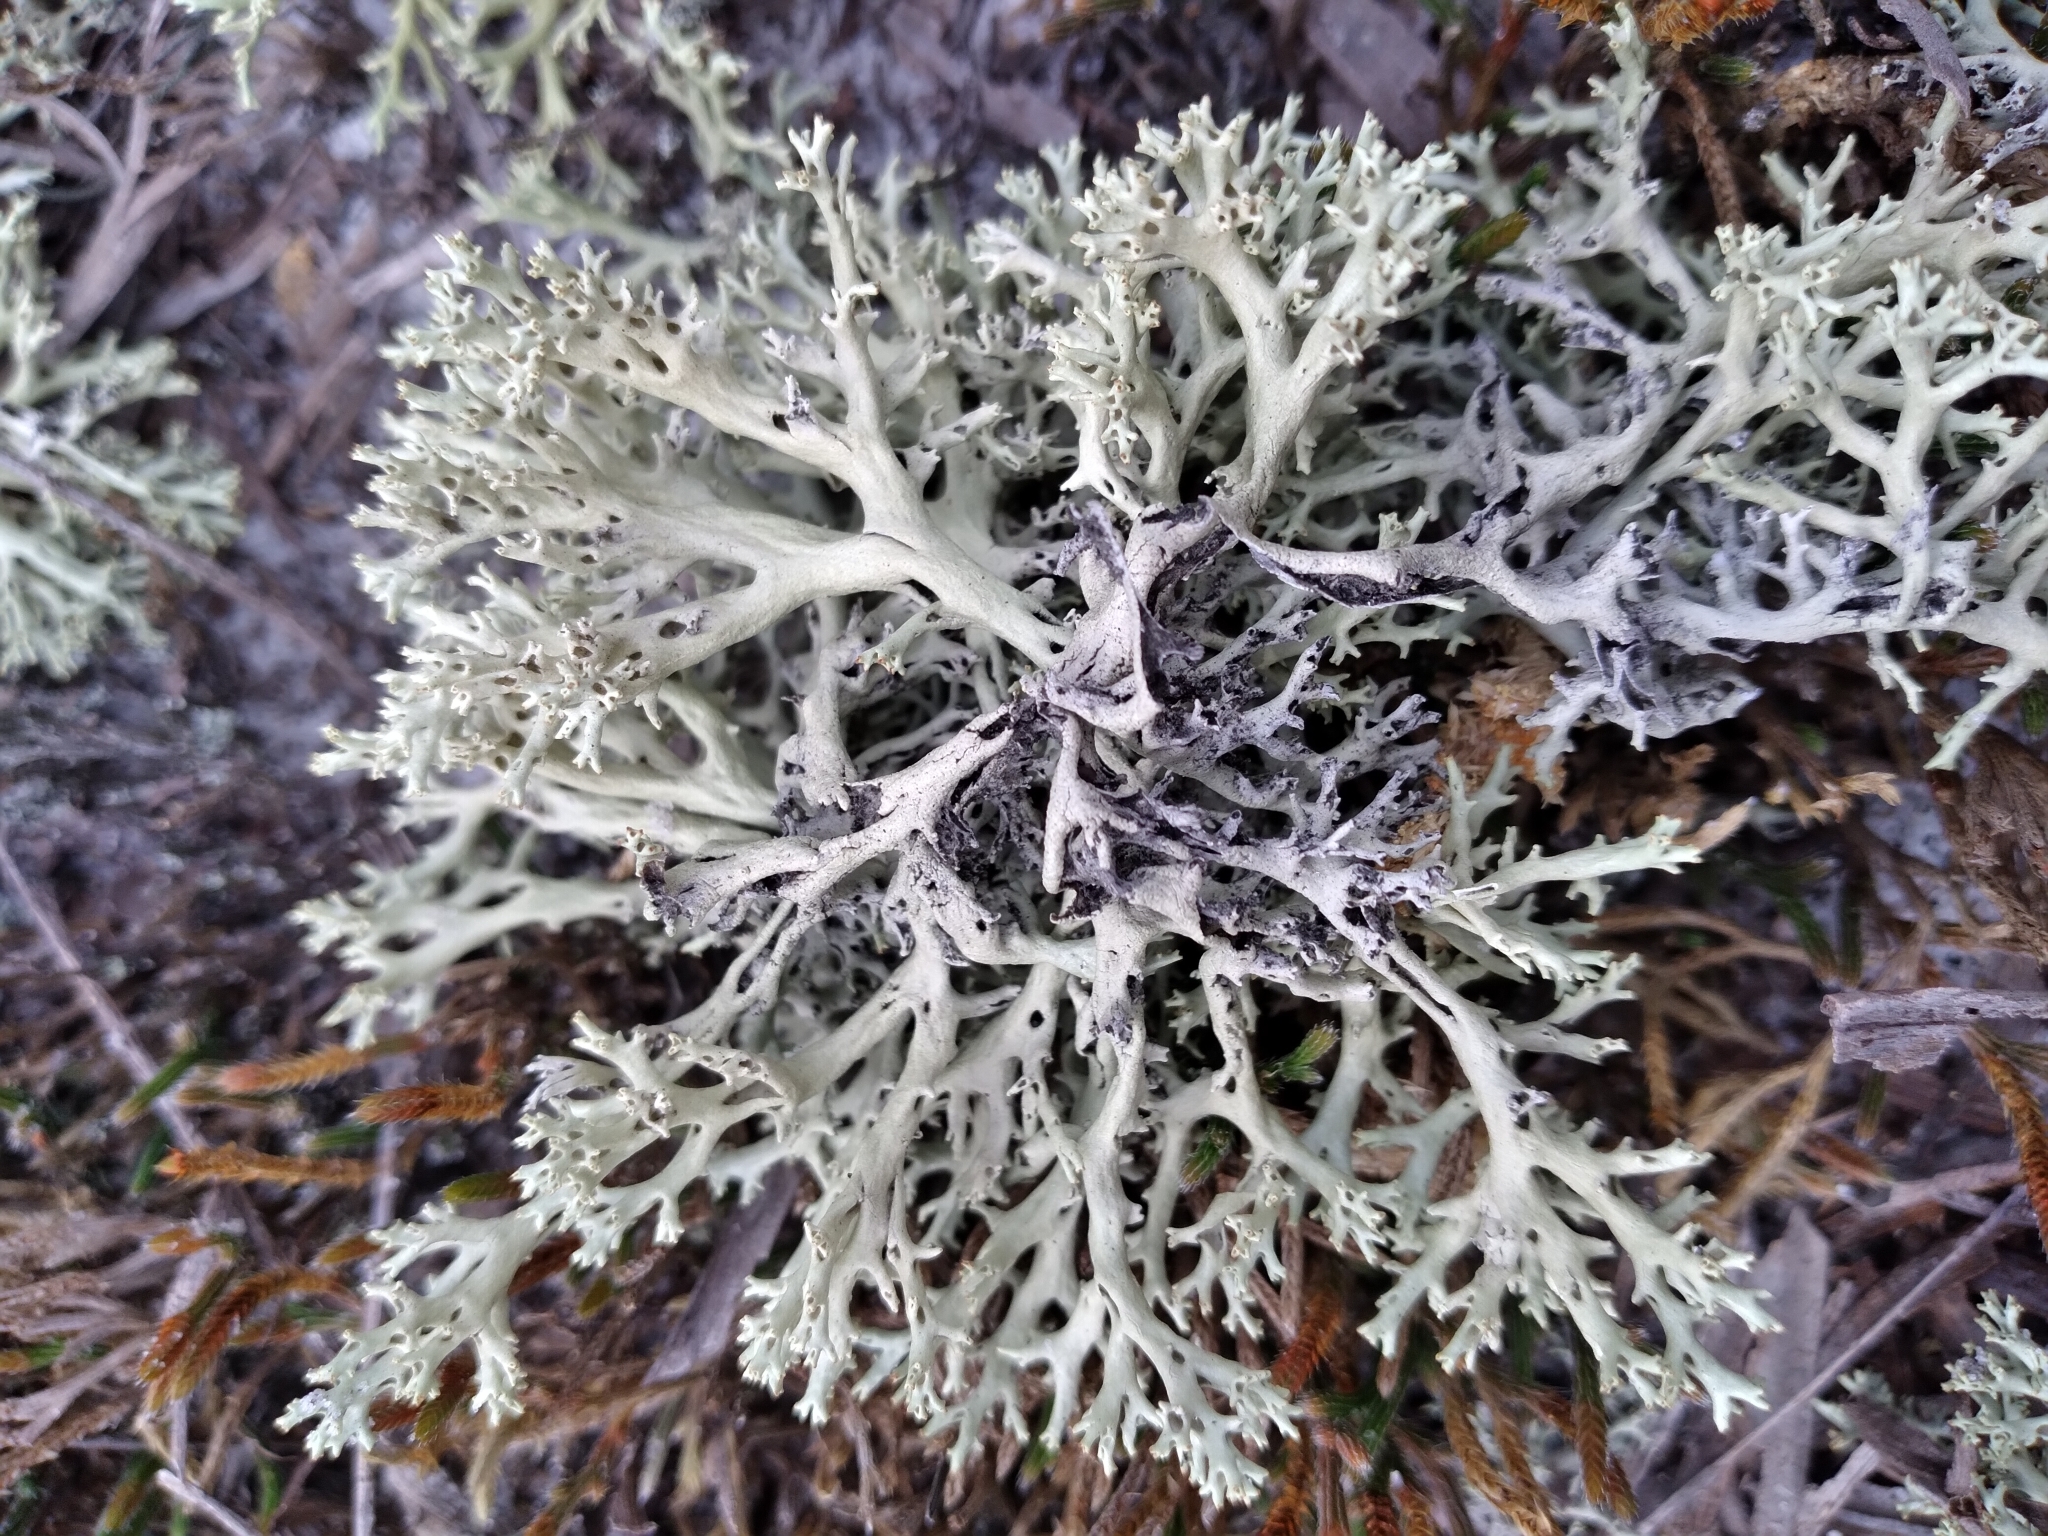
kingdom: Fungi
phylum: Ascomycota
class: Lecanoromycetes
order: Lecanorales
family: Cladoniaceae
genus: Cladonia
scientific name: Cladonia perforata
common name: Florida perforate reindeer lichen
